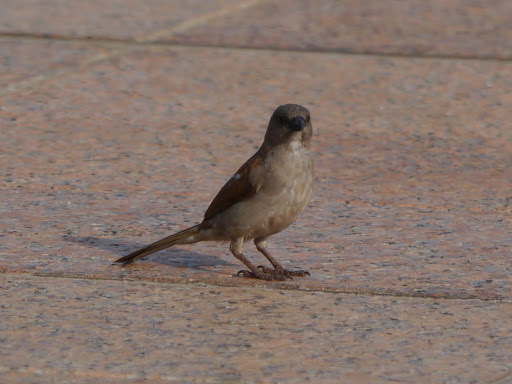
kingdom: Animalia
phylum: Chordata
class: Aves
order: Passeriformes
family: Passeridae
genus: Passer
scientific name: Passer griseus
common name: Northern grey-headed sparrow
